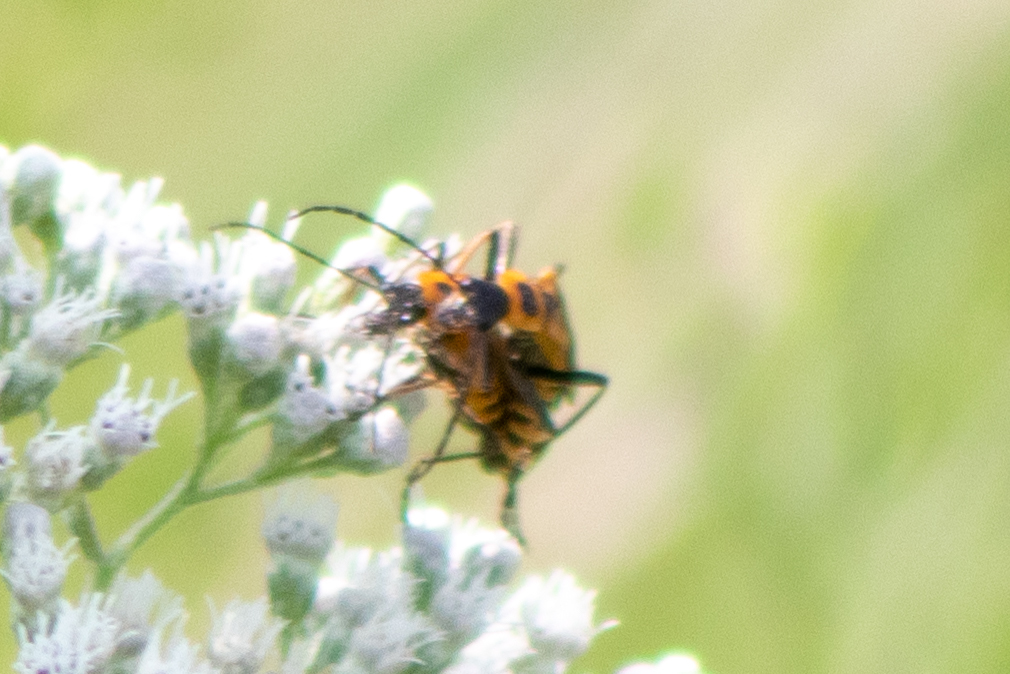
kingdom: Animalia
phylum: Arthropoda
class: Insecta
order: Coleoptera
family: Cantharidae
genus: Chauliognathus
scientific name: Chauliognathus pensylvanicus
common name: Goldenrod soldier beetle
